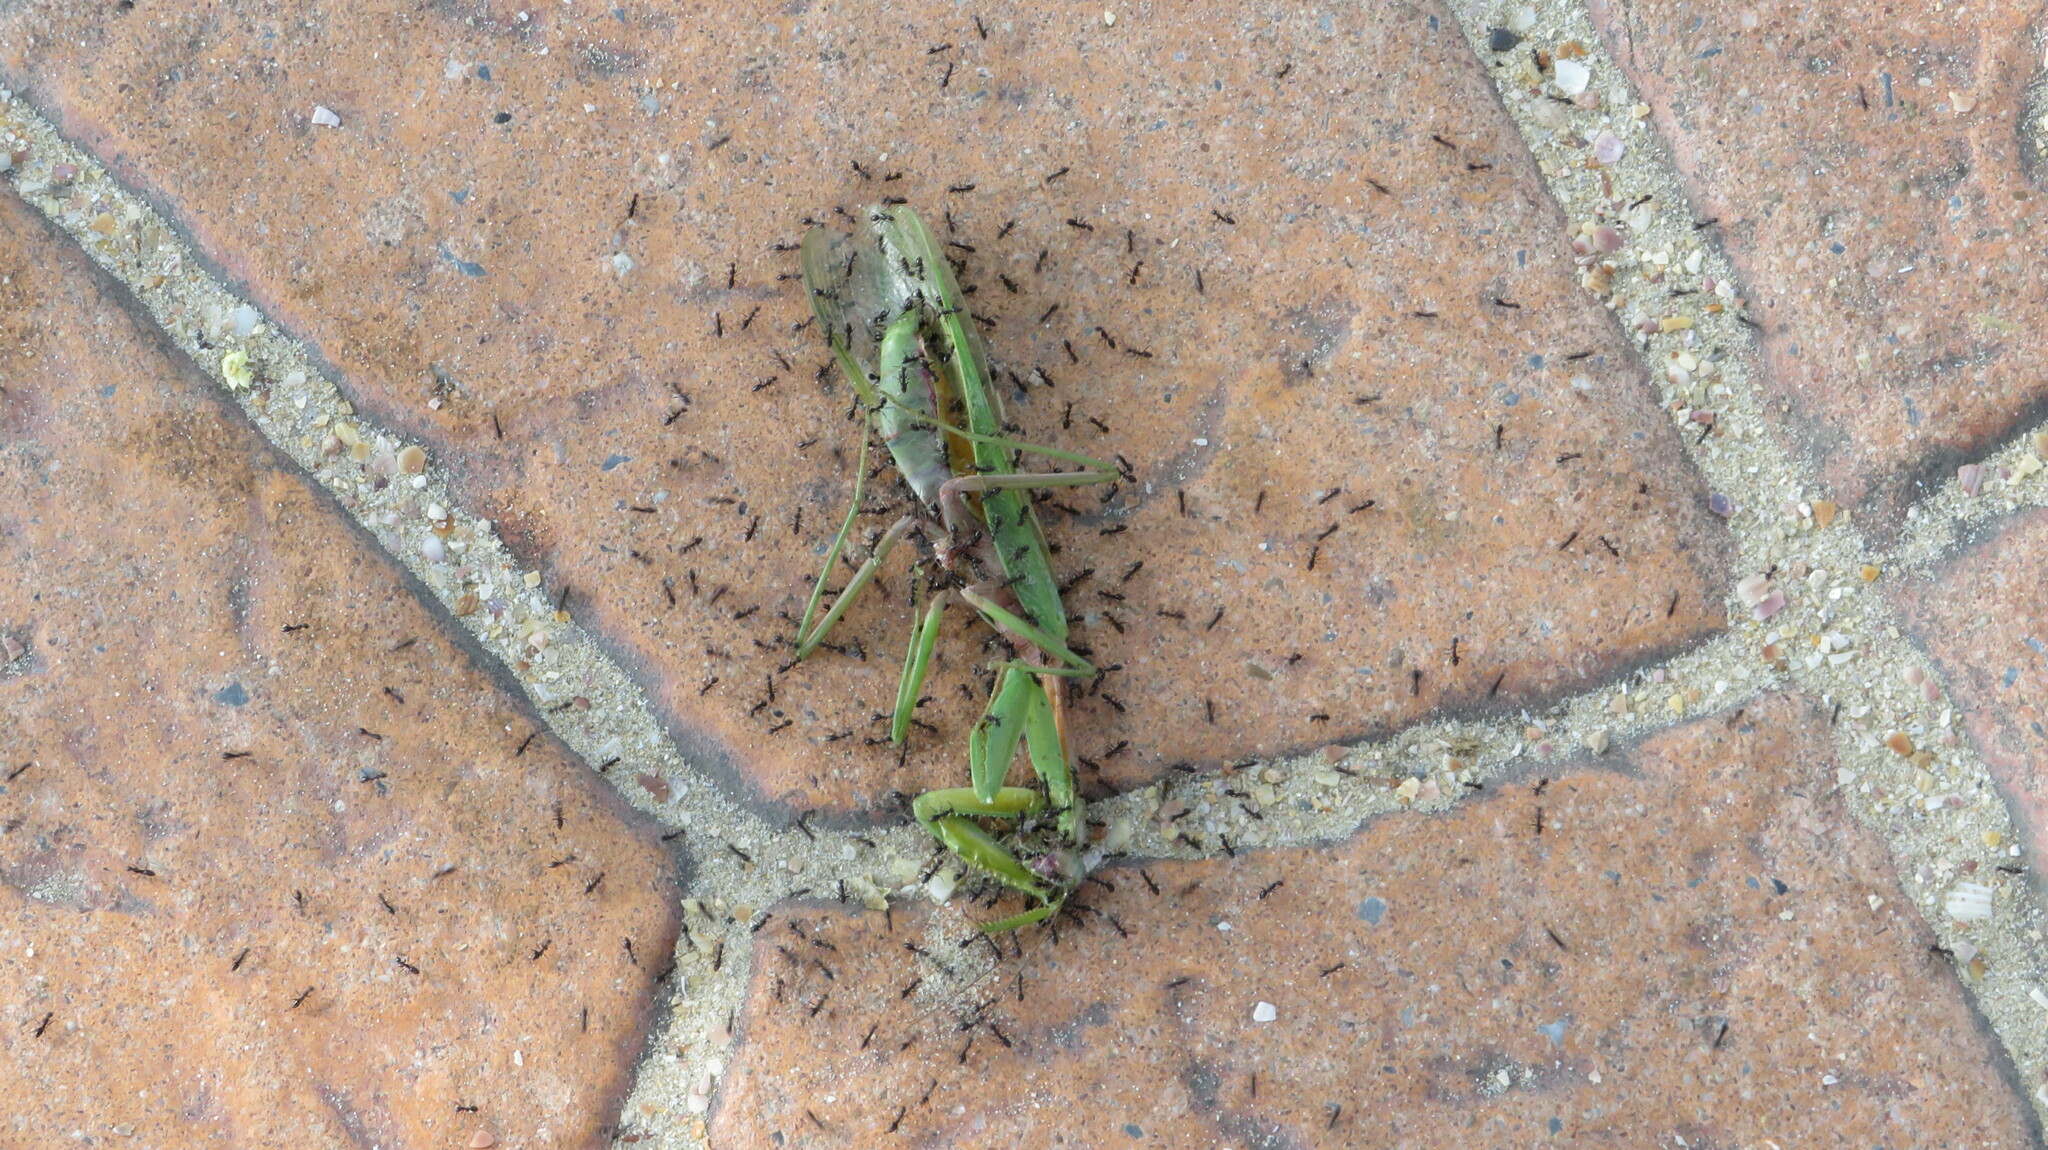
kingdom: Animalia
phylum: Arthropoda
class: Insecta
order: Hymenoptera
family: Formicidae
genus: Paratrechina
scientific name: Paratrechina longicornis
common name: Longhorned crazy ant
